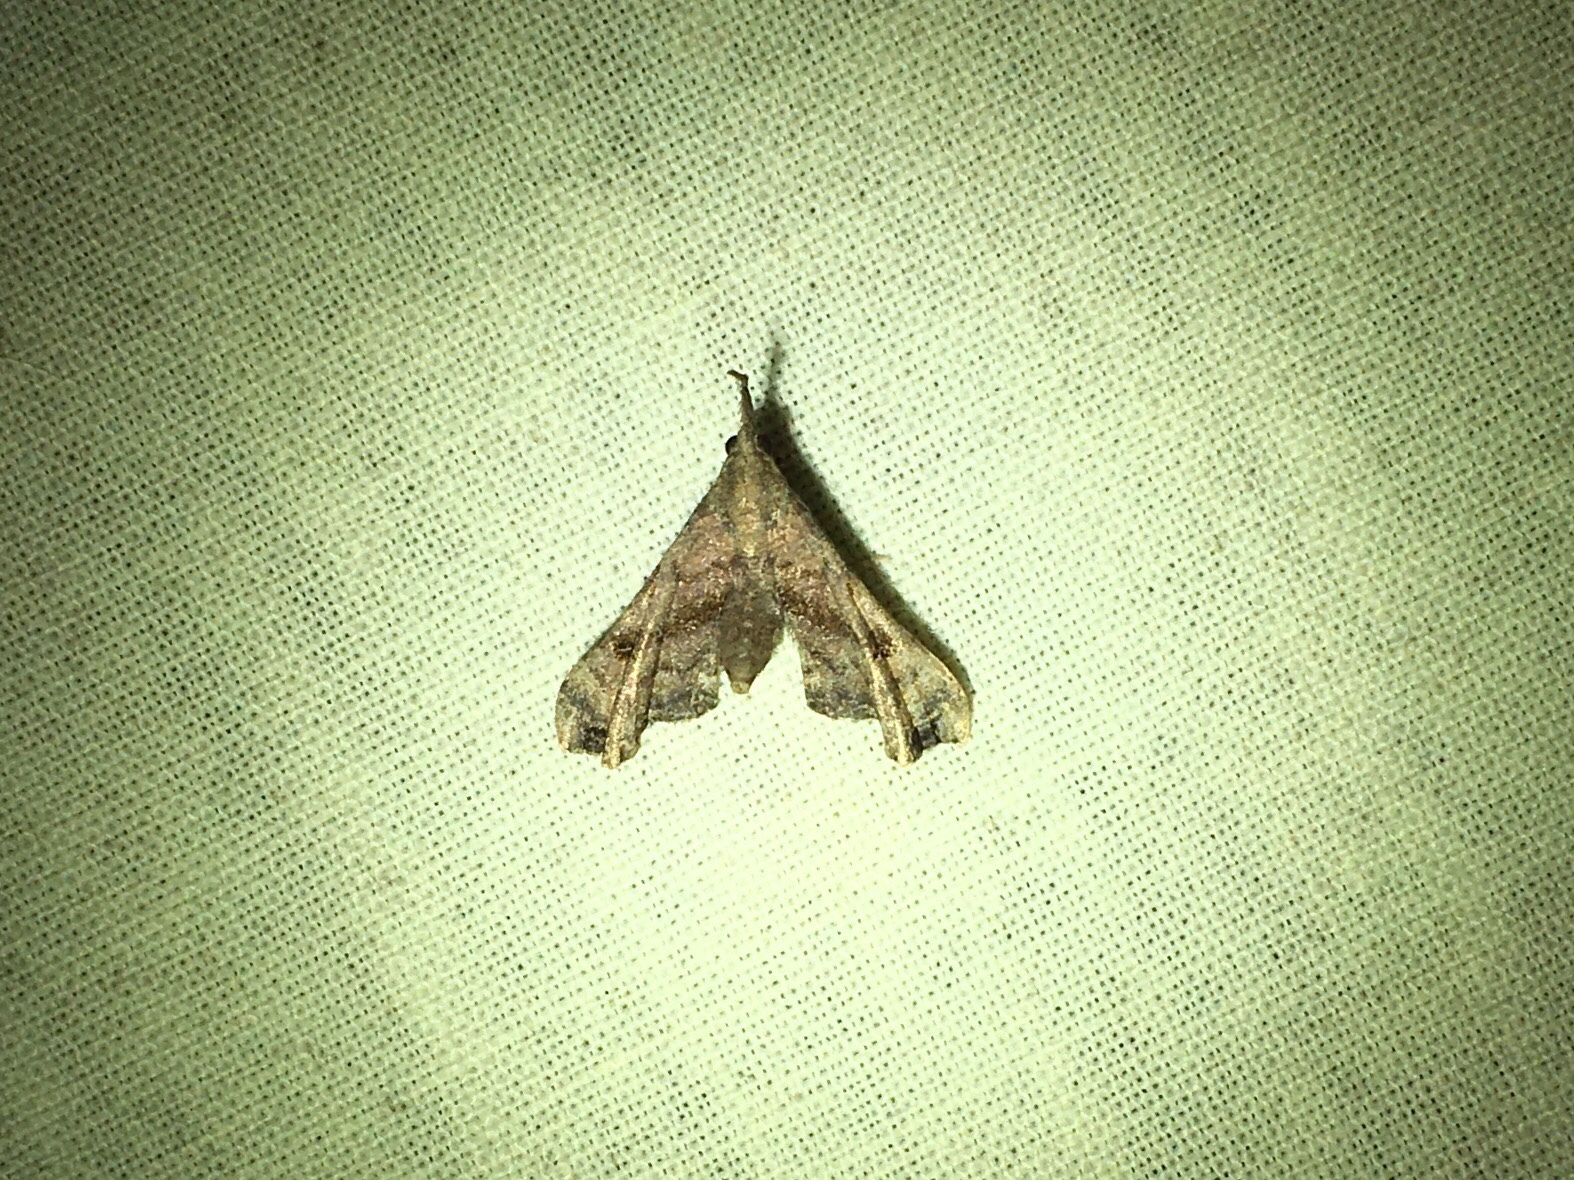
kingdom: Animalia
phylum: Arthropoda
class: Insecta
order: Lepidoptera
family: Erebidae
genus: Palthis
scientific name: Palthis asopialis
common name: Faint-spotted palthis moth
